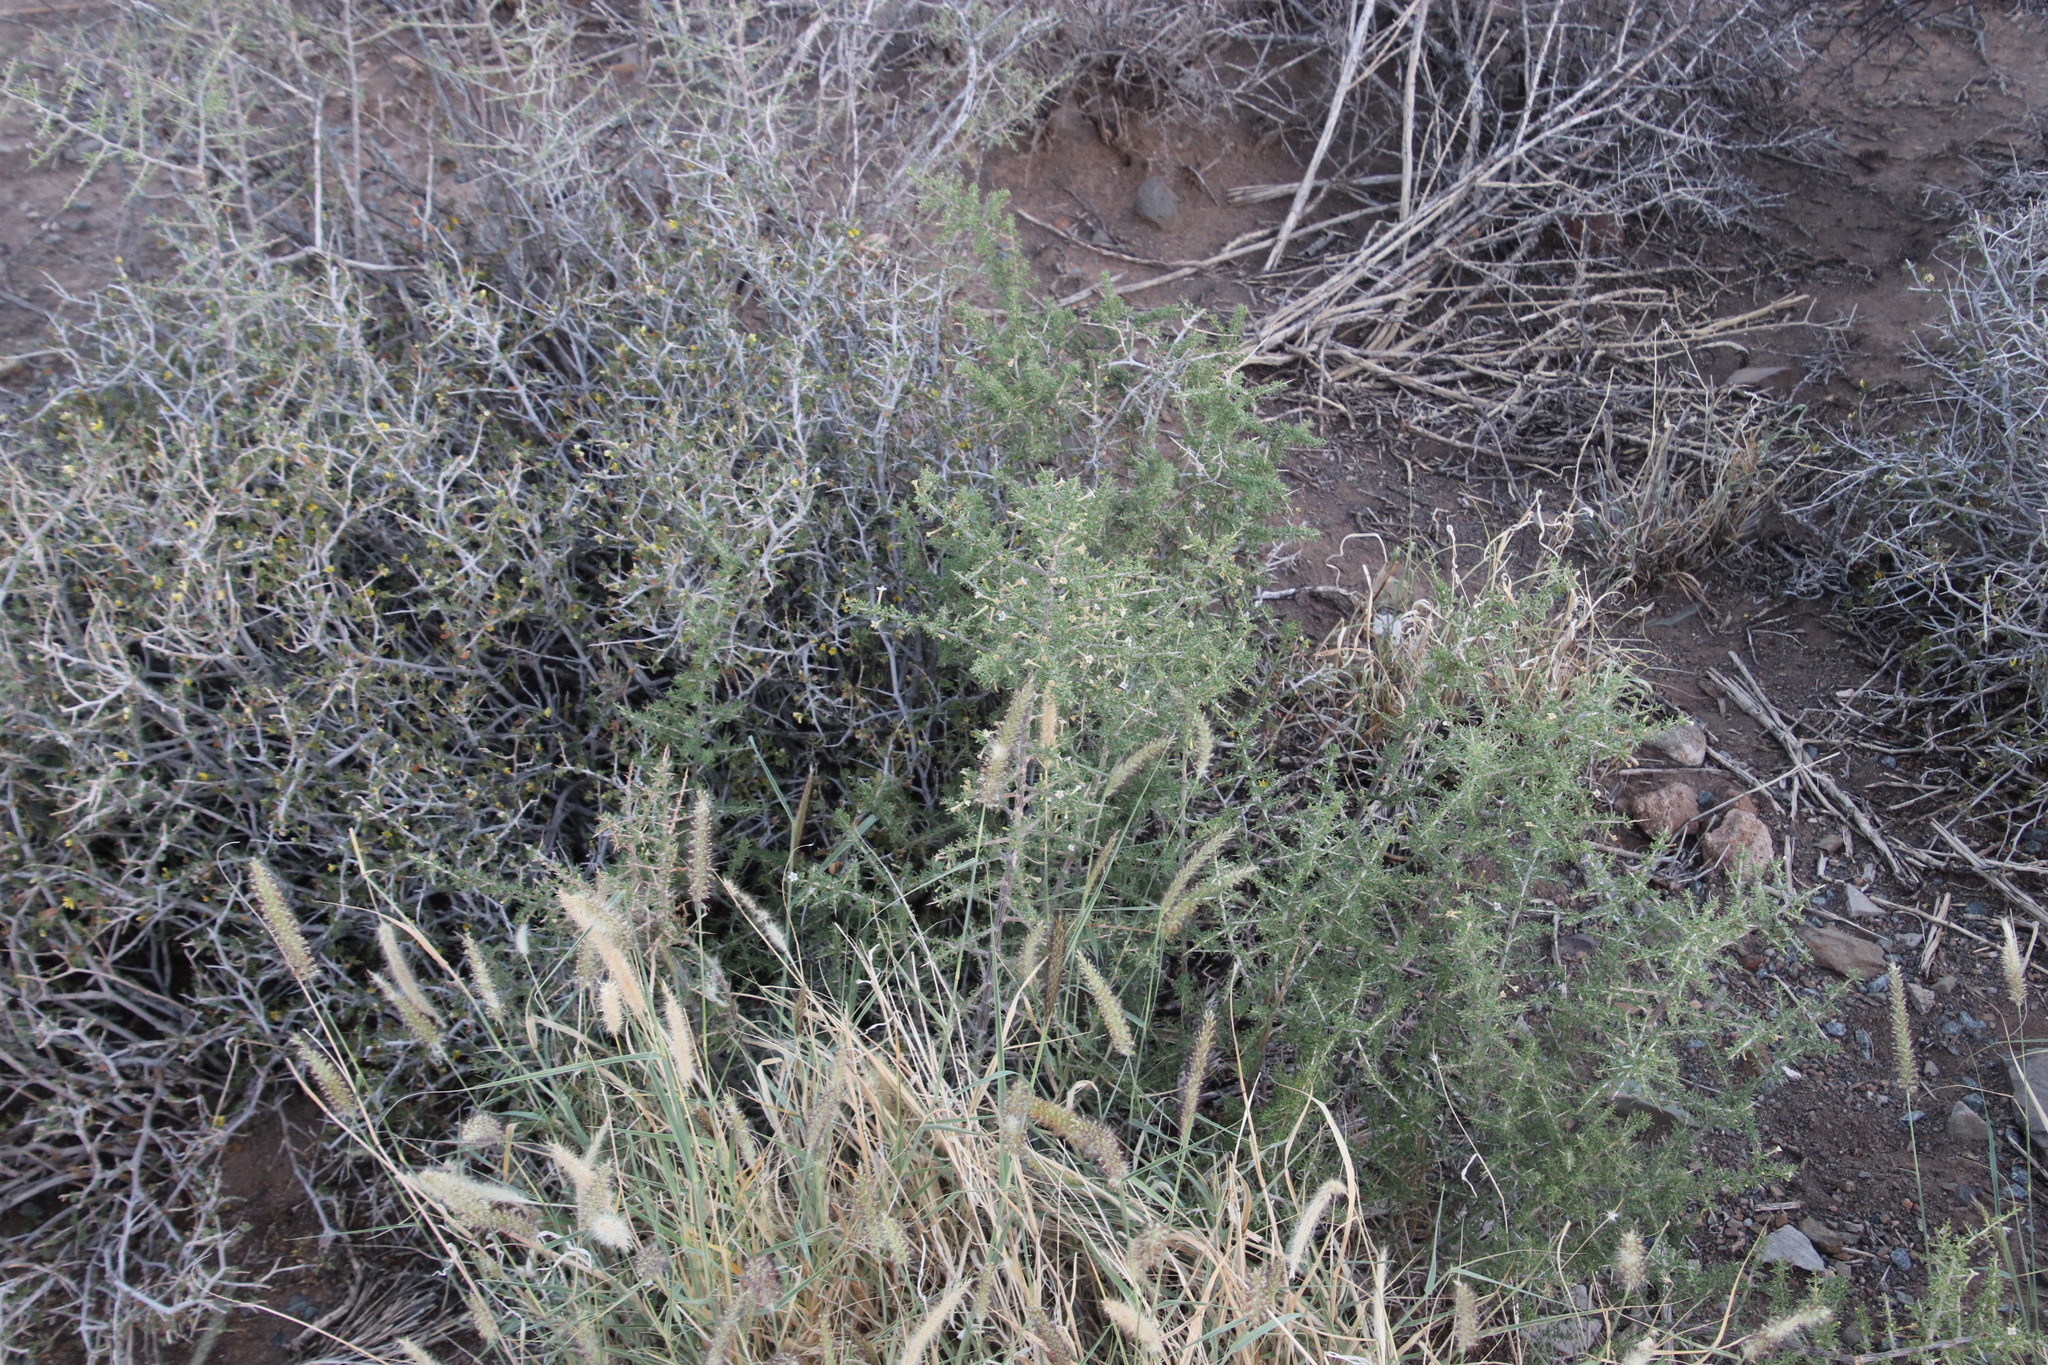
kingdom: Plantae
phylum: Tracheophyta
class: Magnoliopsida
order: Solanales
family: Solanaceae
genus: Lycium
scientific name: Lycium horridum
